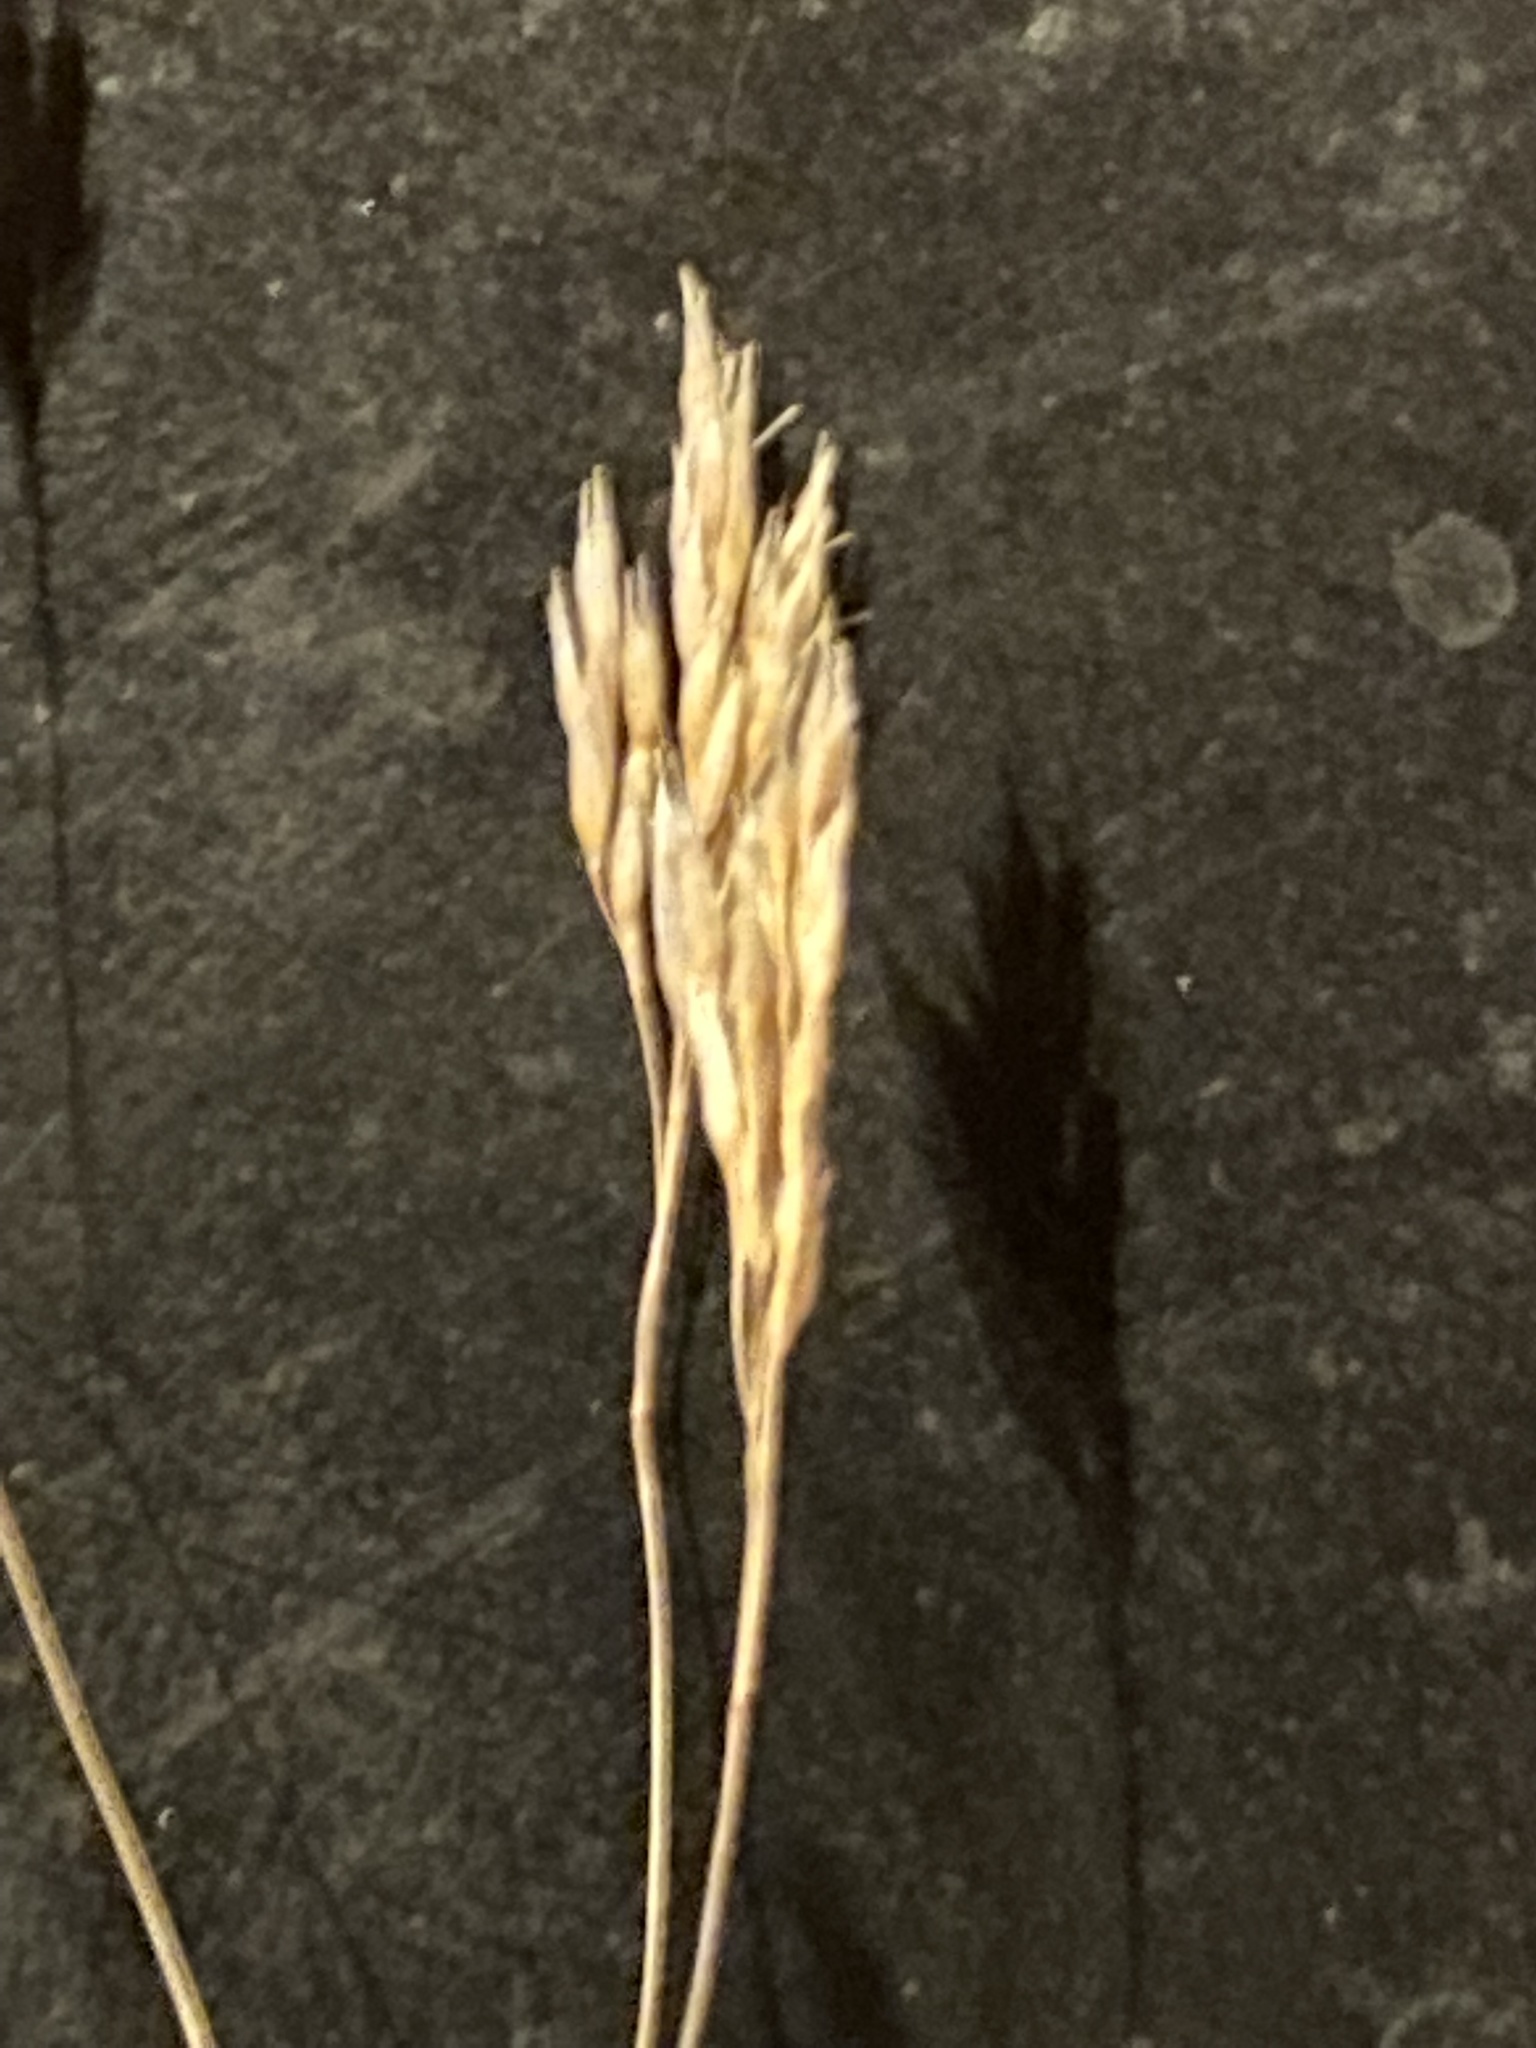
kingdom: Plantae
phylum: Tracheophyta
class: Liliopsida
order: Poales
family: Poaceae
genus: Aira
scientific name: Aira caryophyllea
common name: Silver hairgrass
